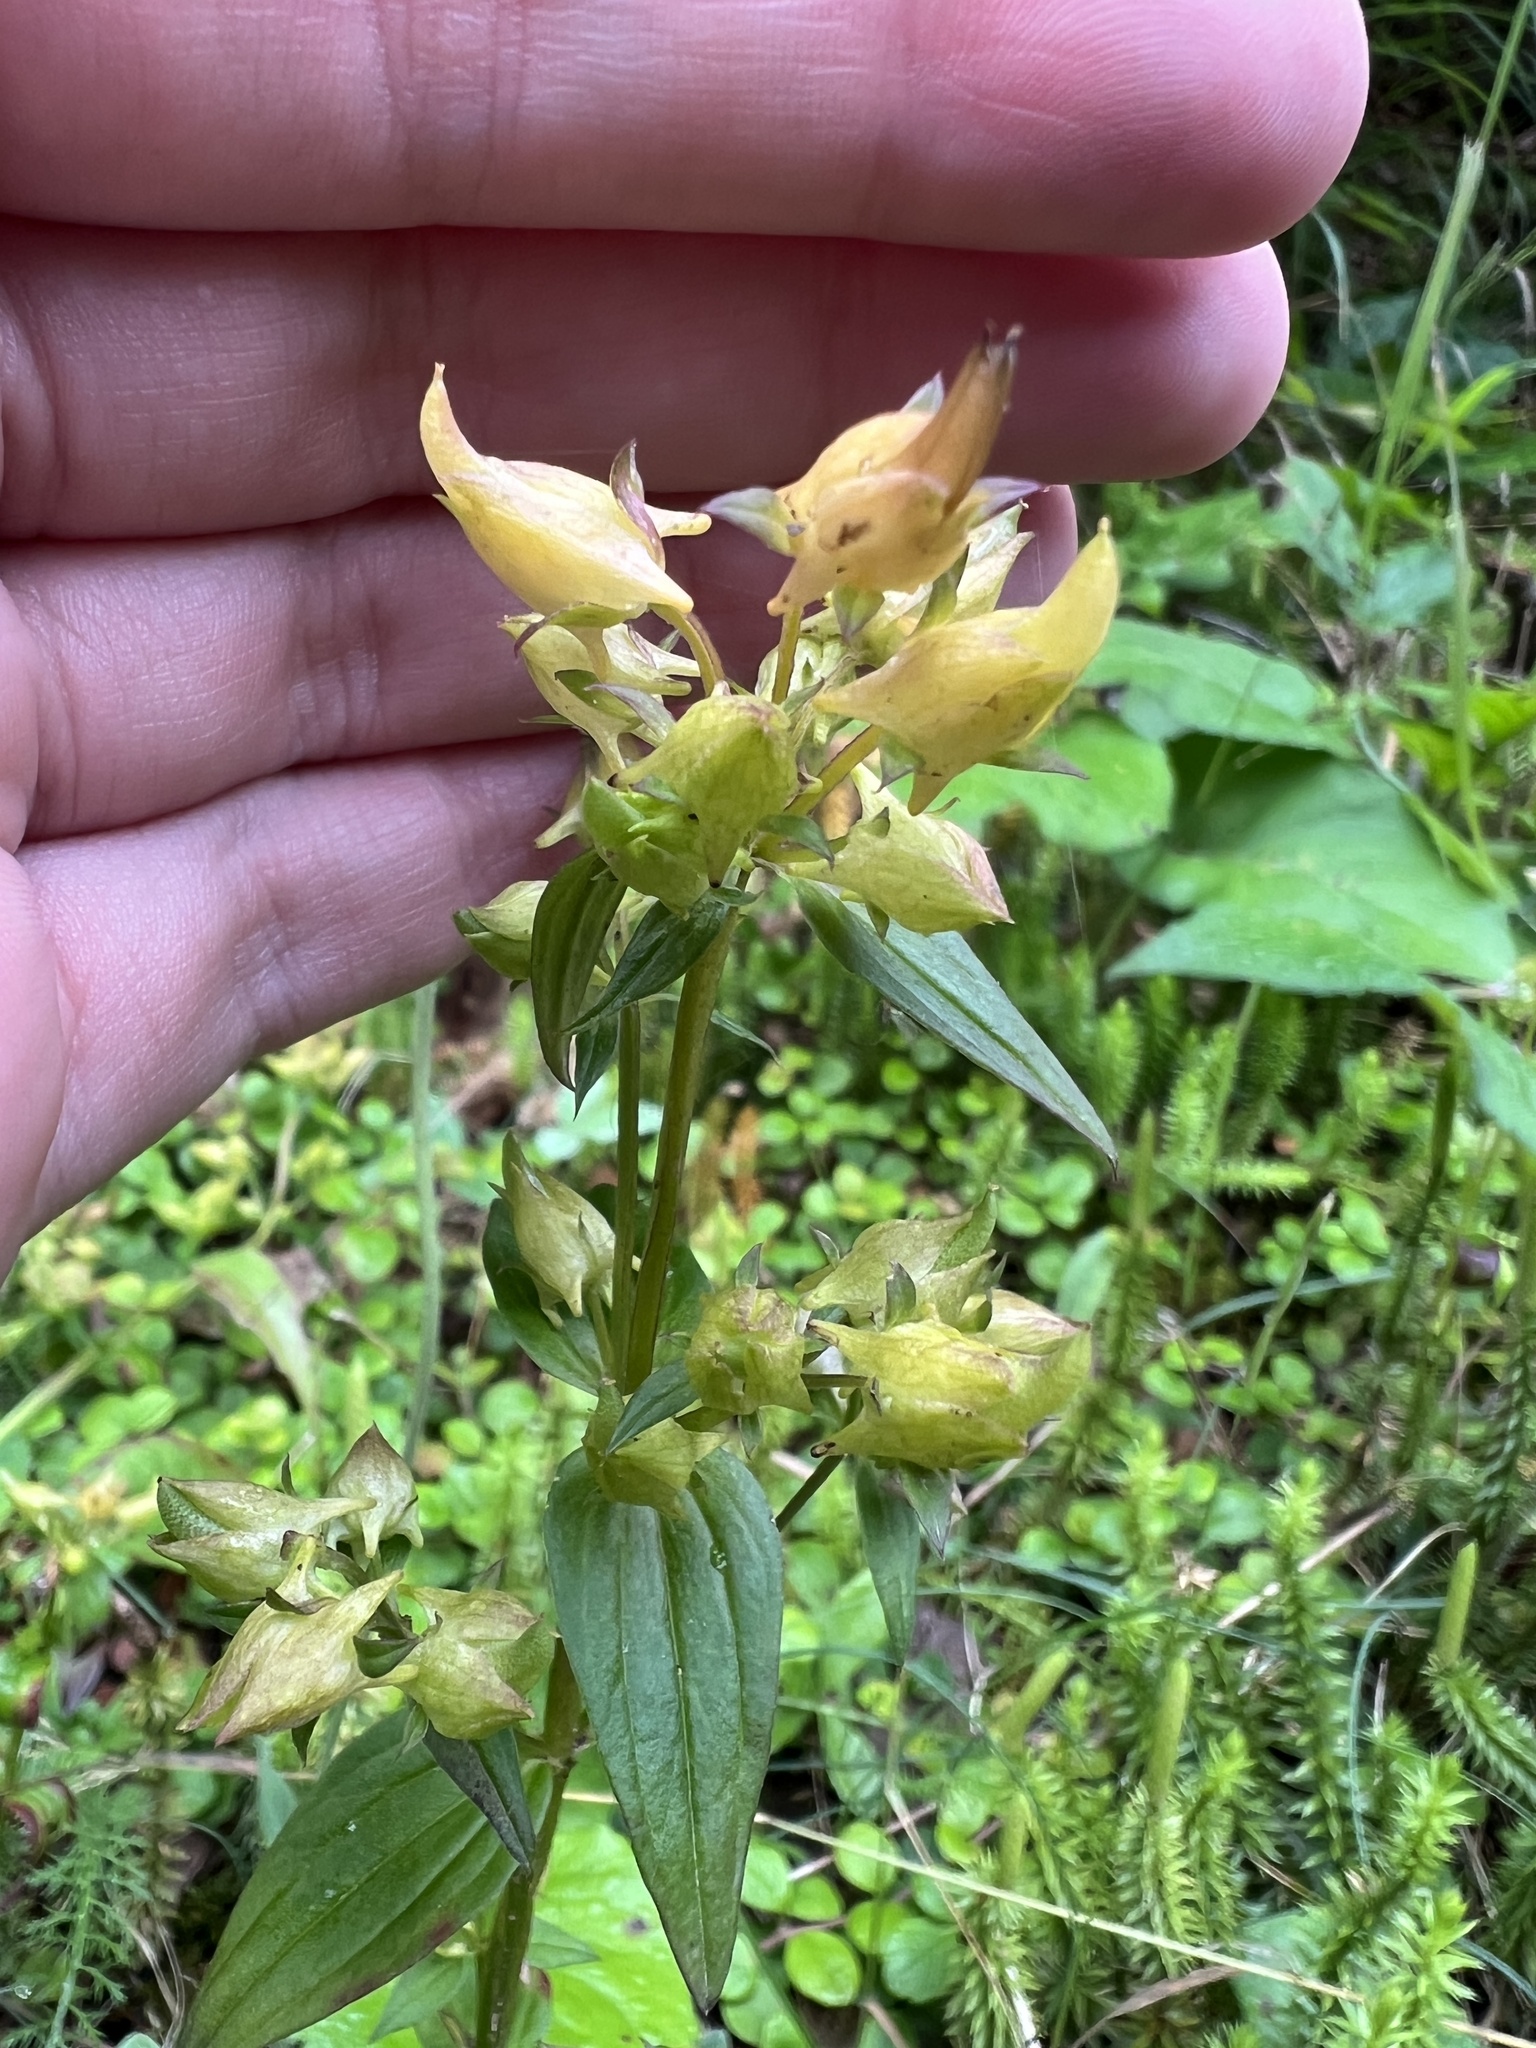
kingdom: Plantae
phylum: Tracheophyta
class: Magnoliopsida
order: Gentianales
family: Gentianaceae
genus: Halenia
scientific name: Halenia deflexa
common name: American spurred gentian
